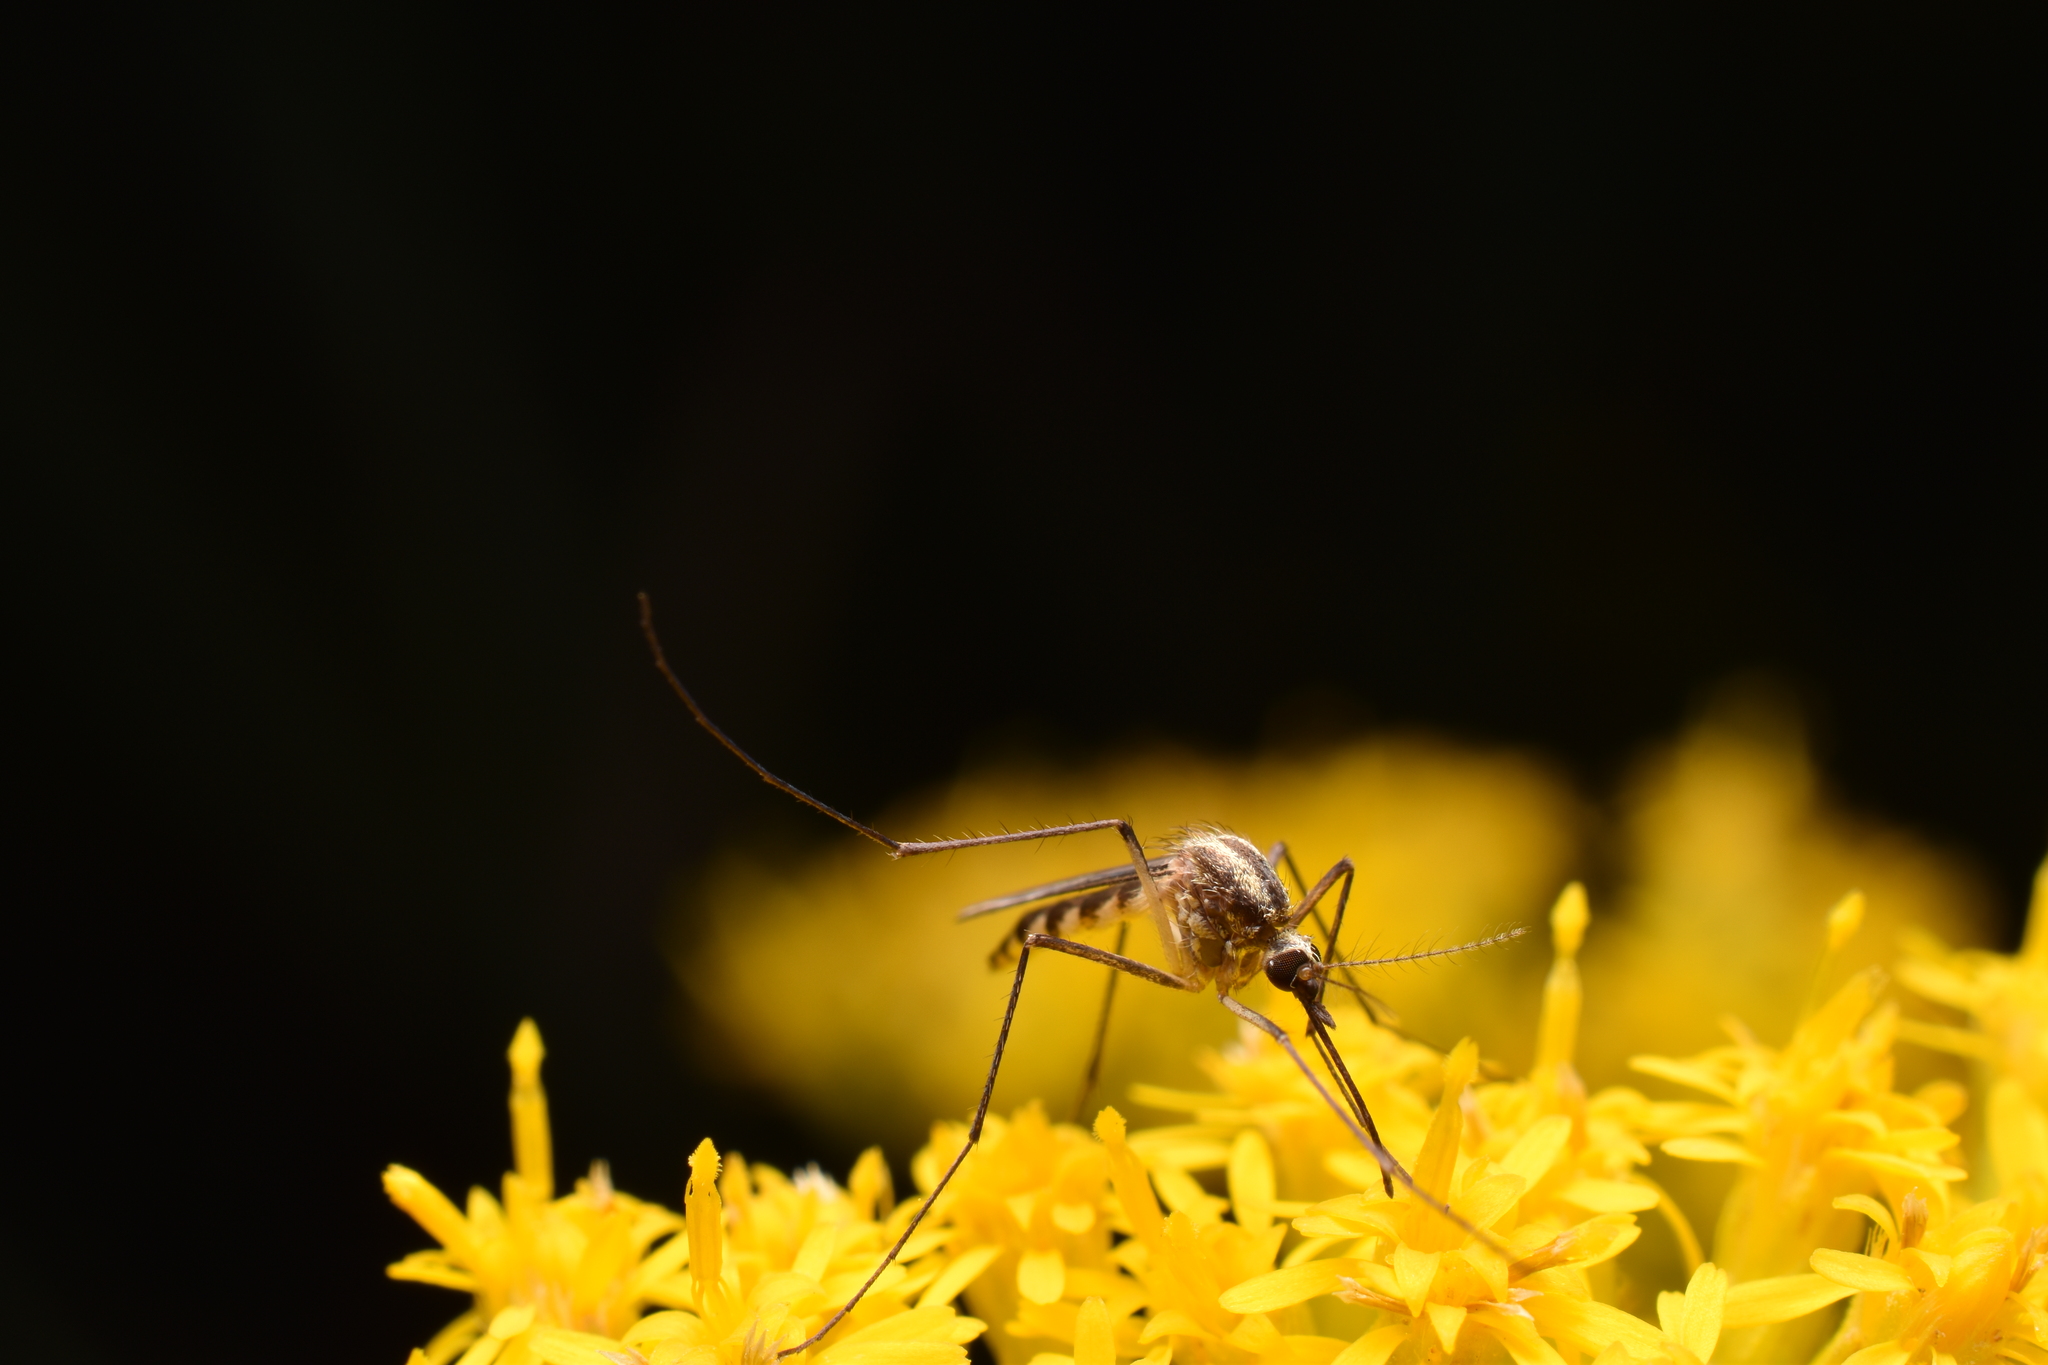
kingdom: Animalia
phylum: Arthropoda
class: Insecta
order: Diptera
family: Culicidae
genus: Aedes
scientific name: Aedes trivittatus
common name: Plains floodwater mosquito
